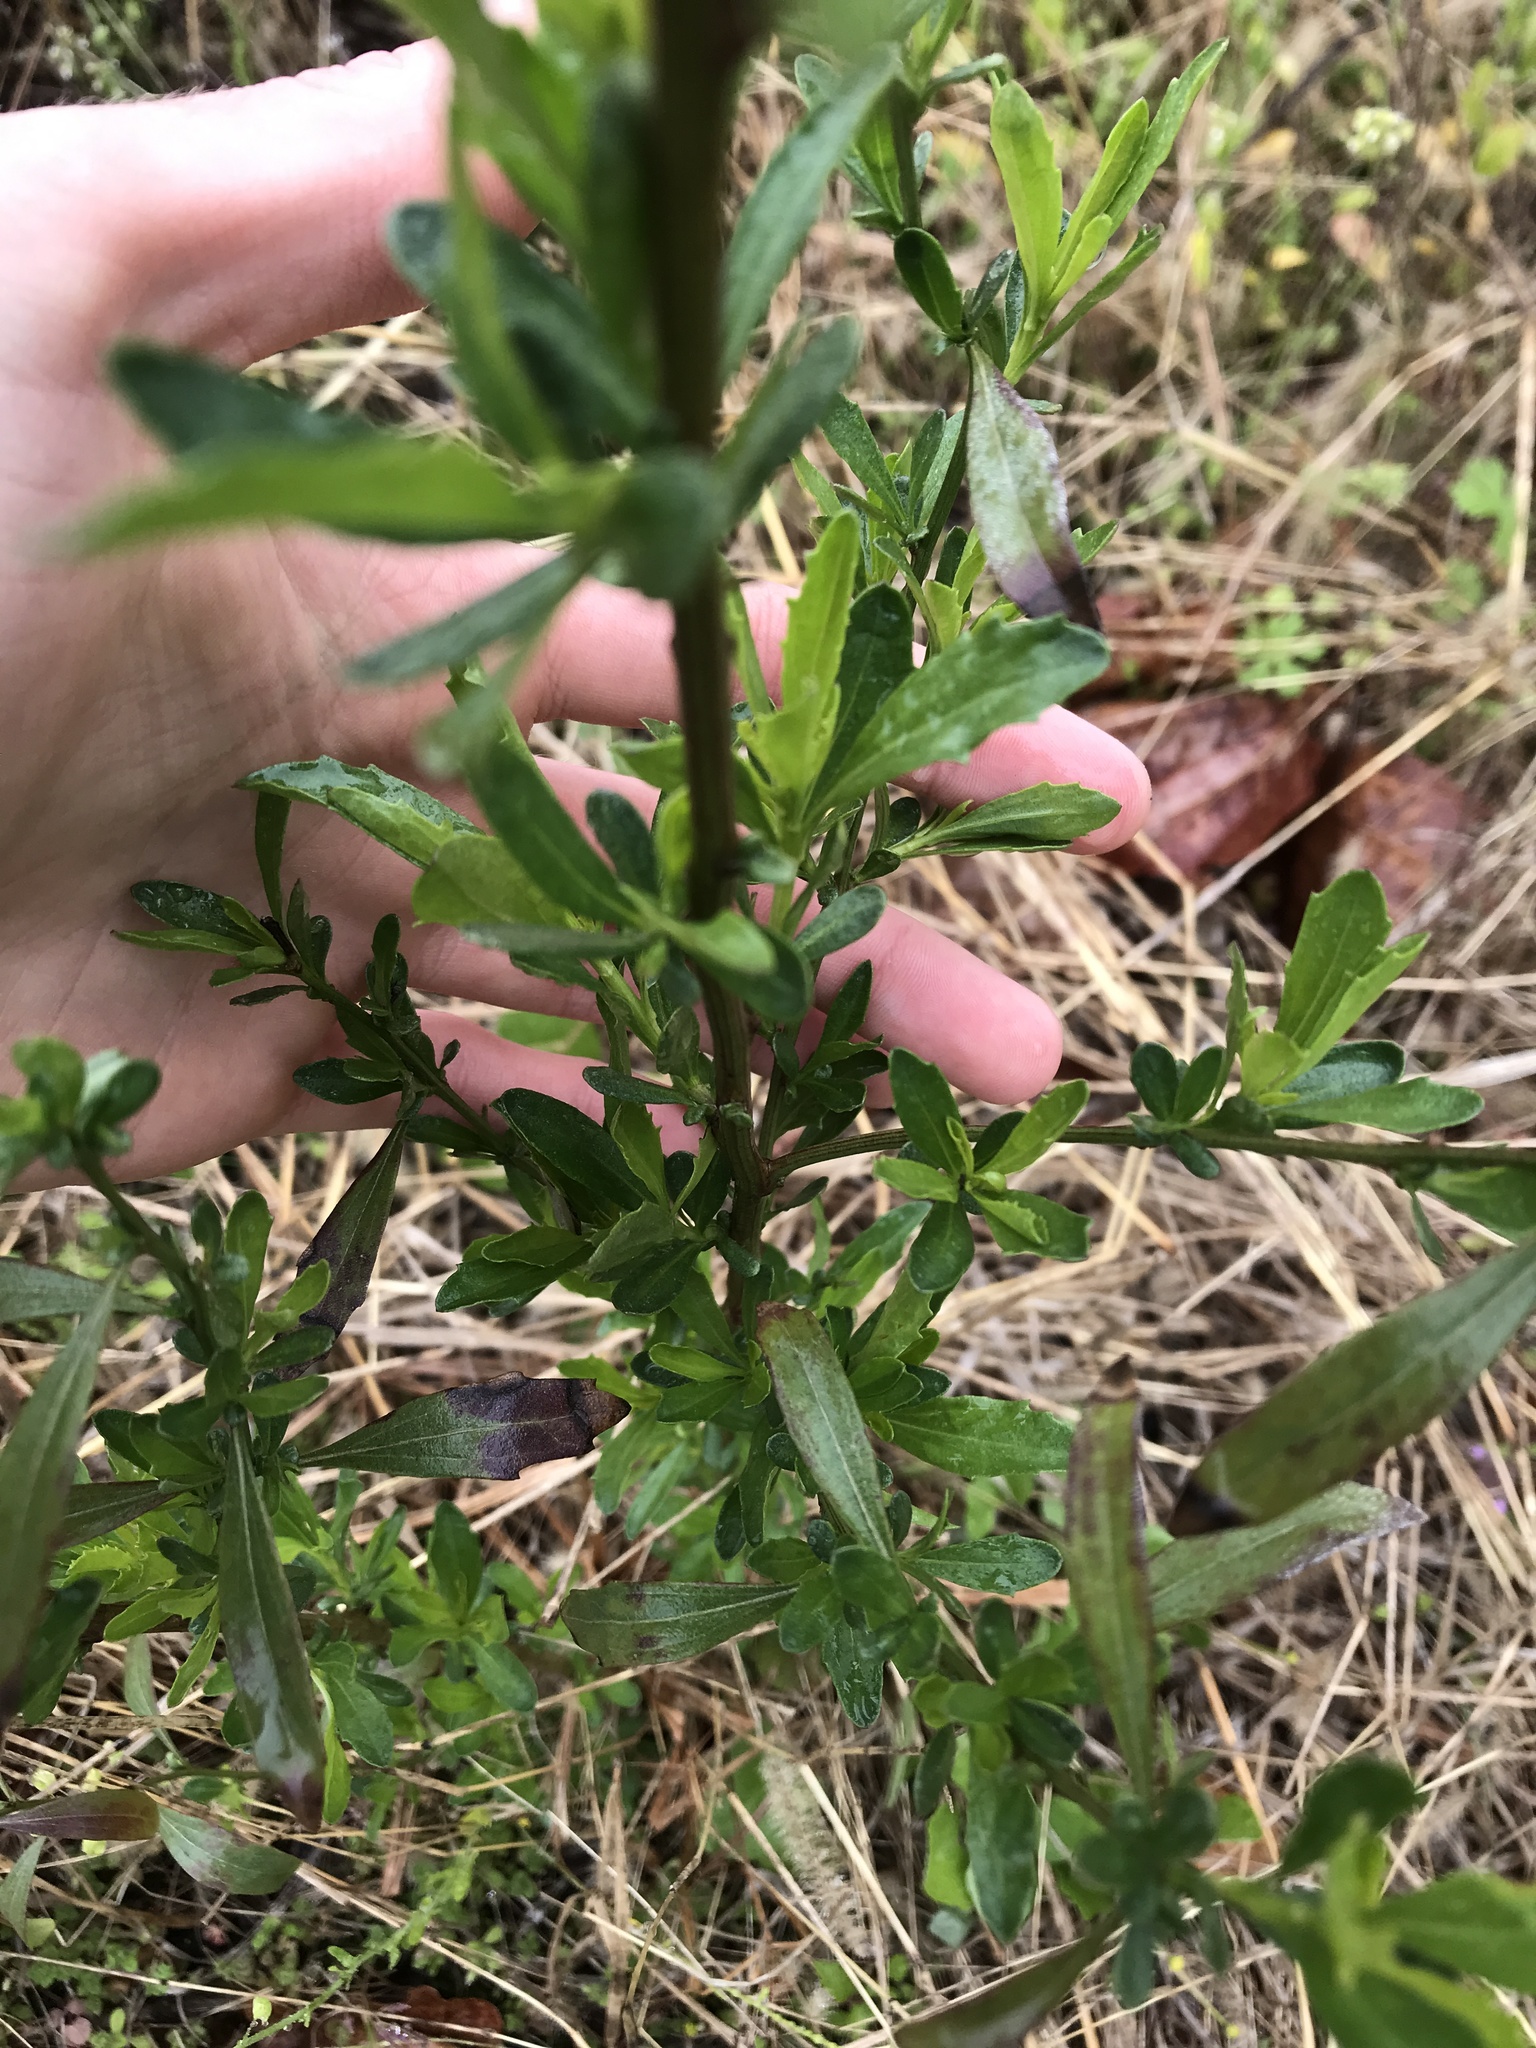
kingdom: Plantae
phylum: Tracheophyta
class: Magnoliopsida
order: Asterales
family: Asteraceae
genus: Baccharis
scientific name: Baccharis halimifolia
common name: Eastern baccharis
